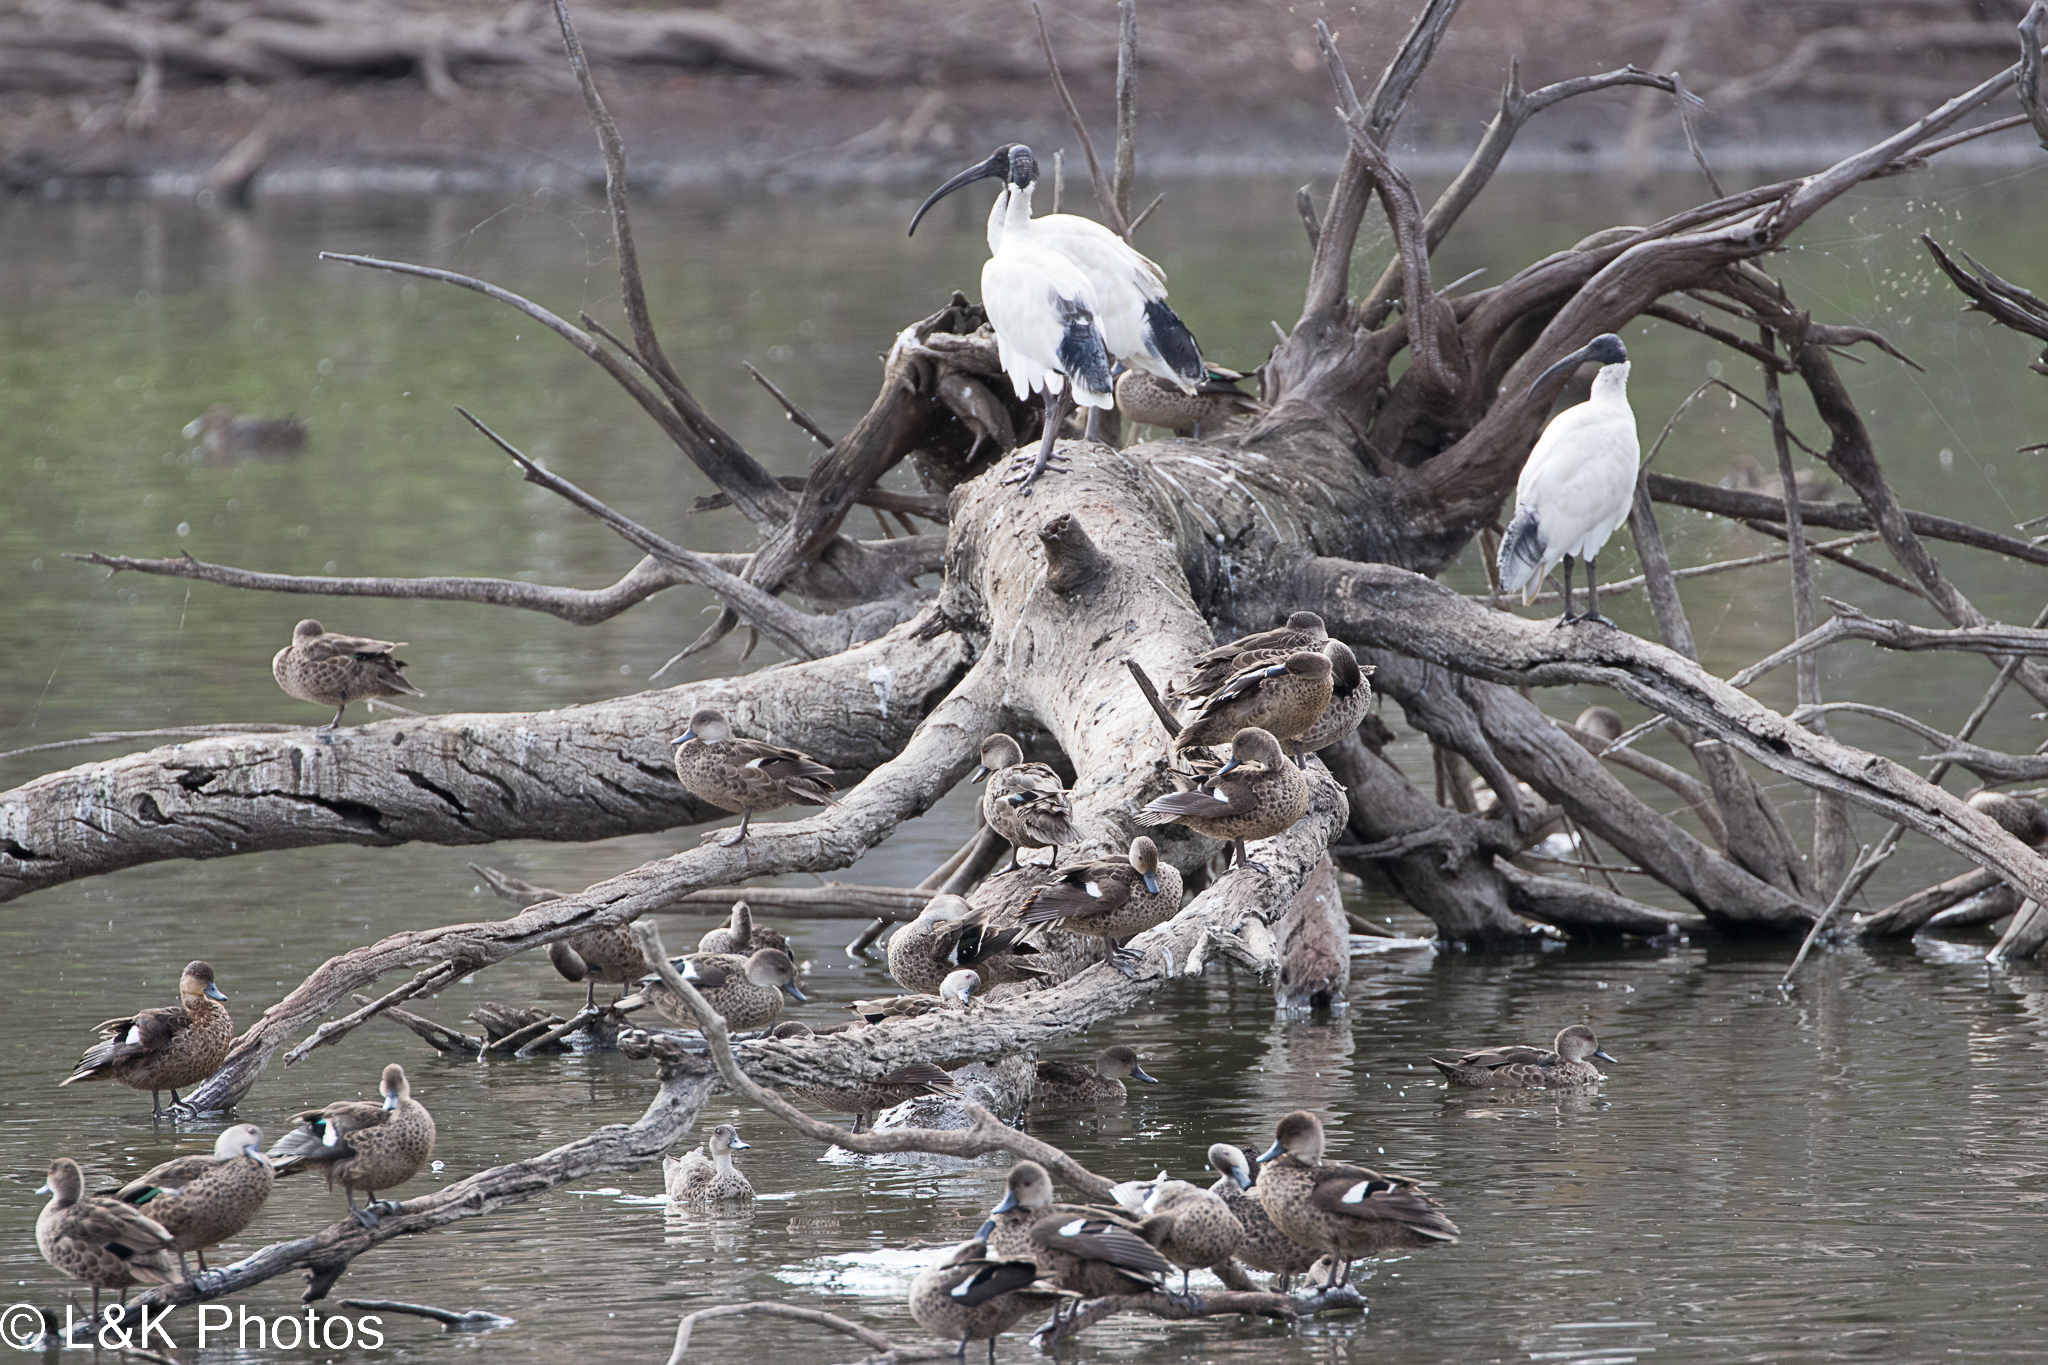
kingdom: Animalia
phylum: Chordata
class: Aves
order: Pelecaniformes
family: Threskiornithidae
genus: Threskiornis
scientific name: Threskiornis molucca
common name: Australian white ibis
